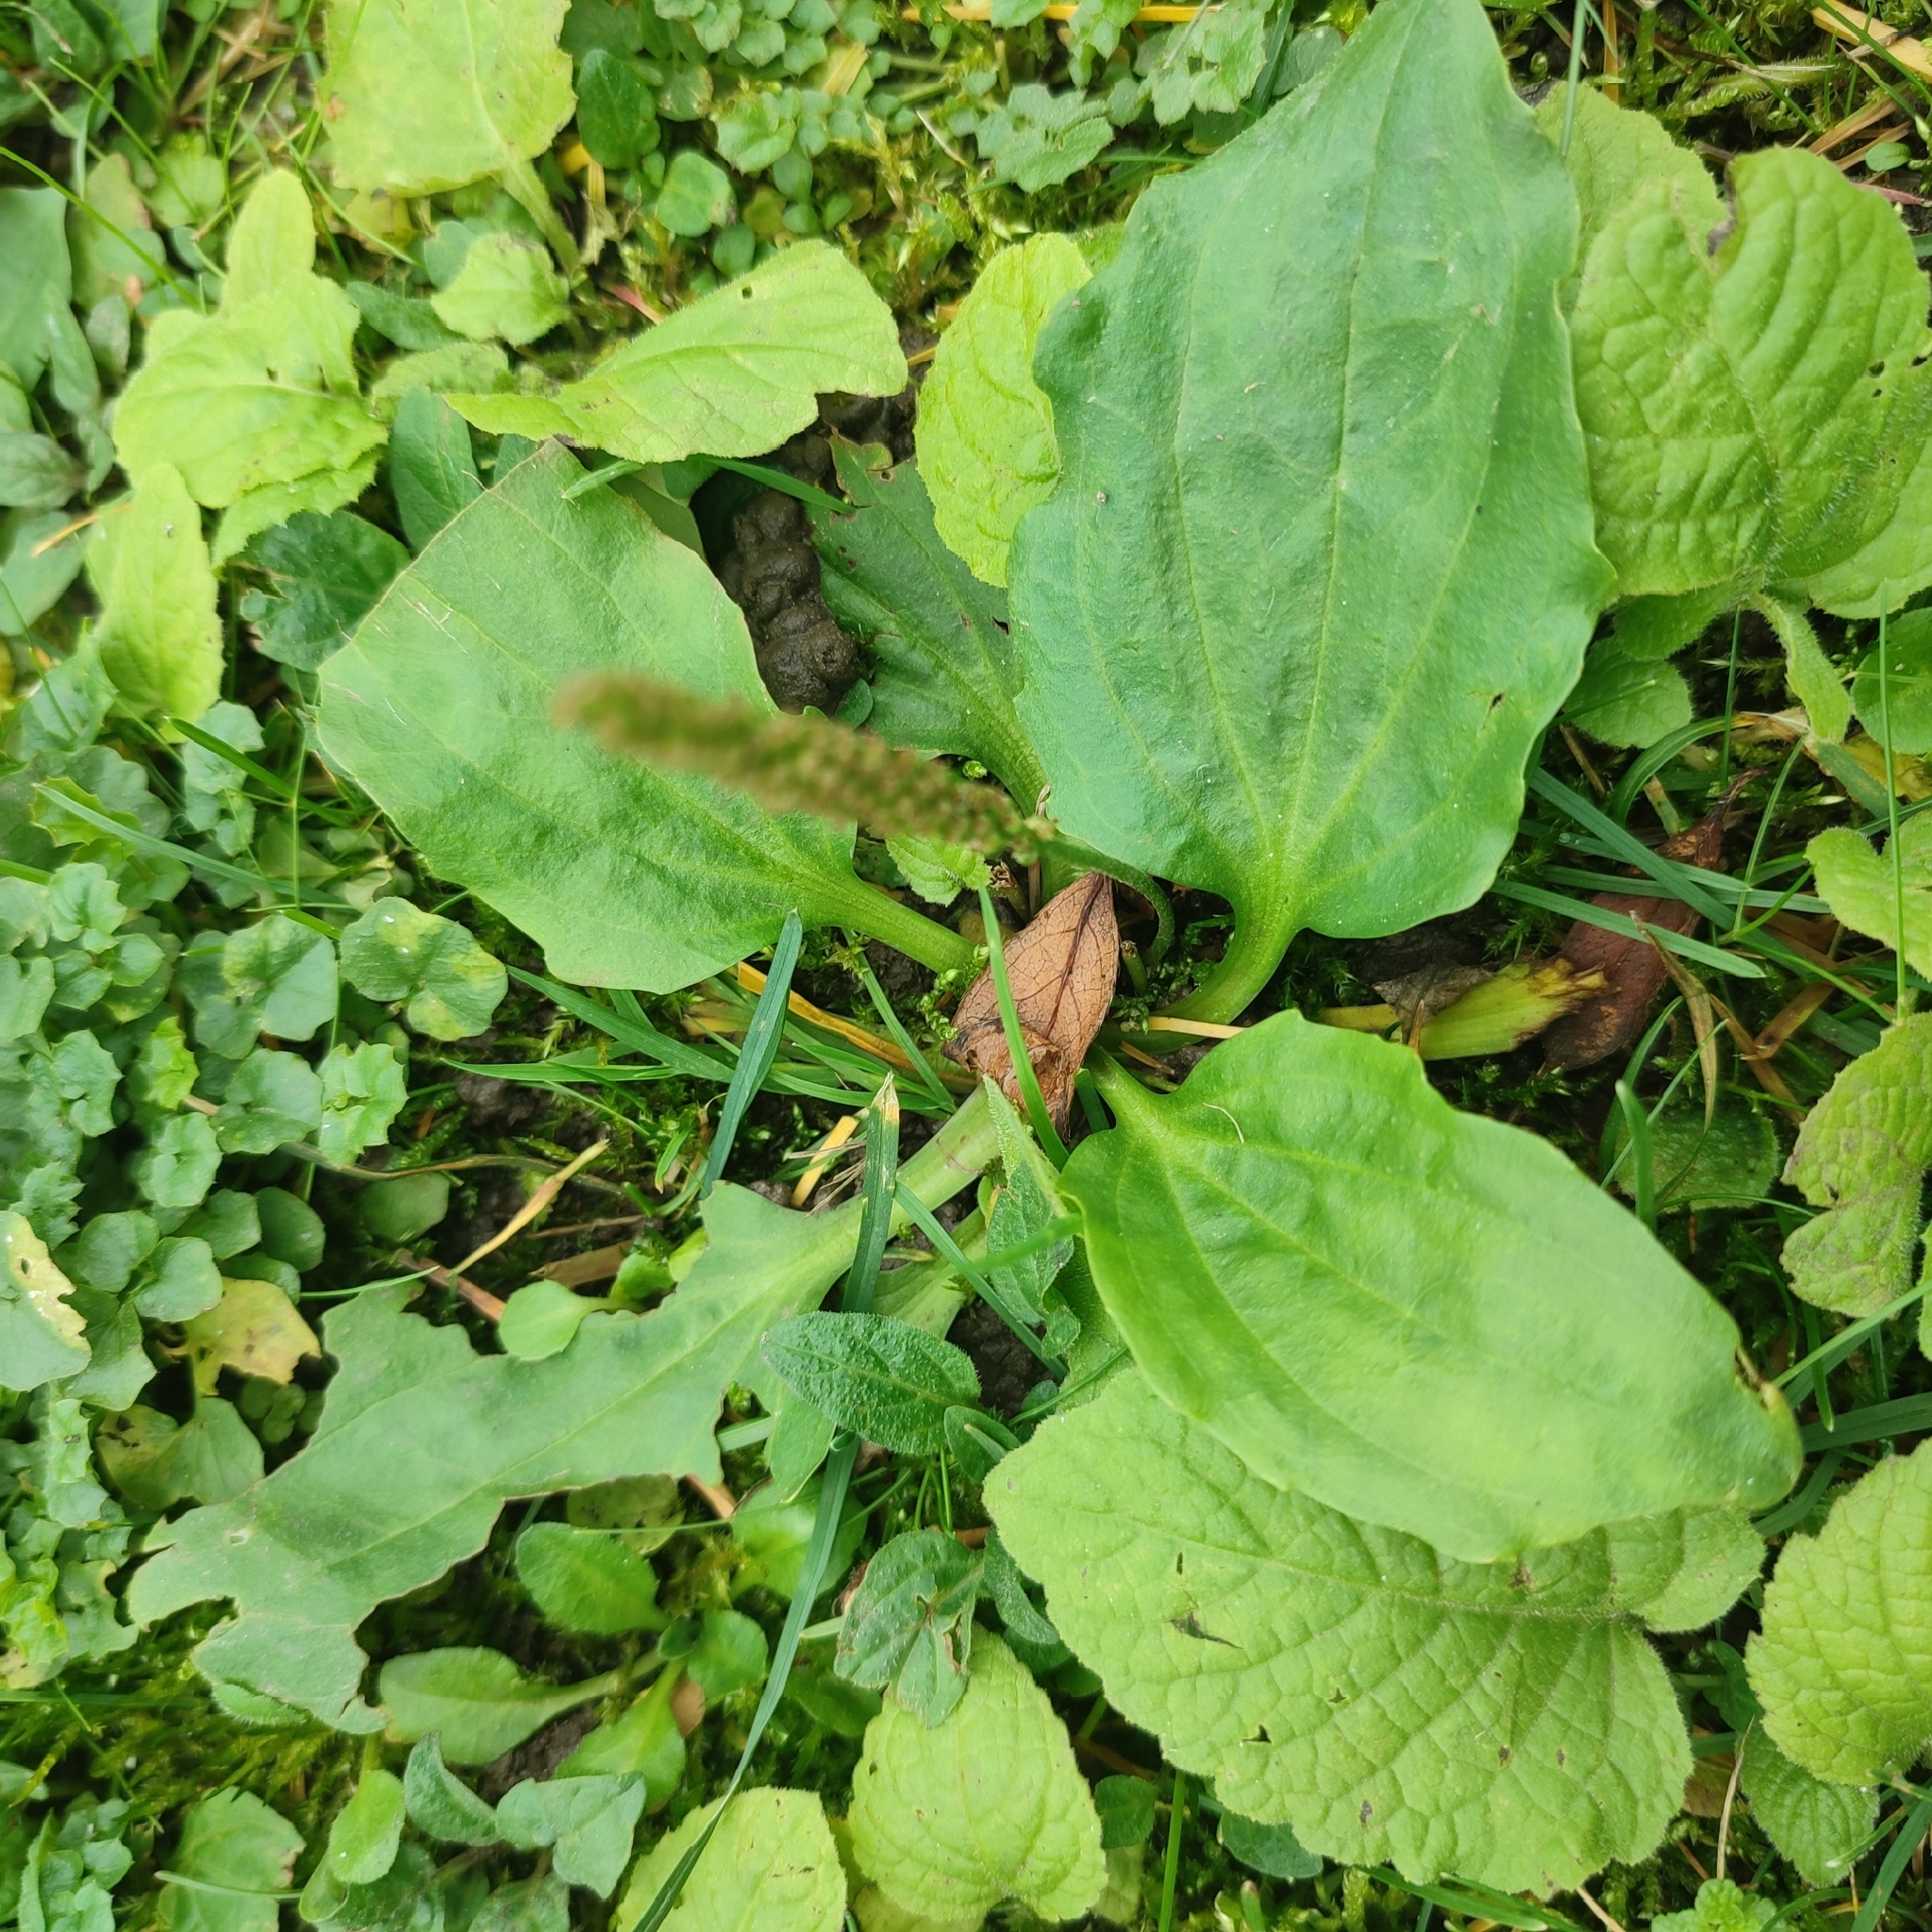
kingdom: Plantae
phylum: Tracheophyta
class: Magnoliopsida
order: Lamiales
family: Plantaginaceae
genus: Plantago
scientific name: Plantago major
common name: Common plantain
